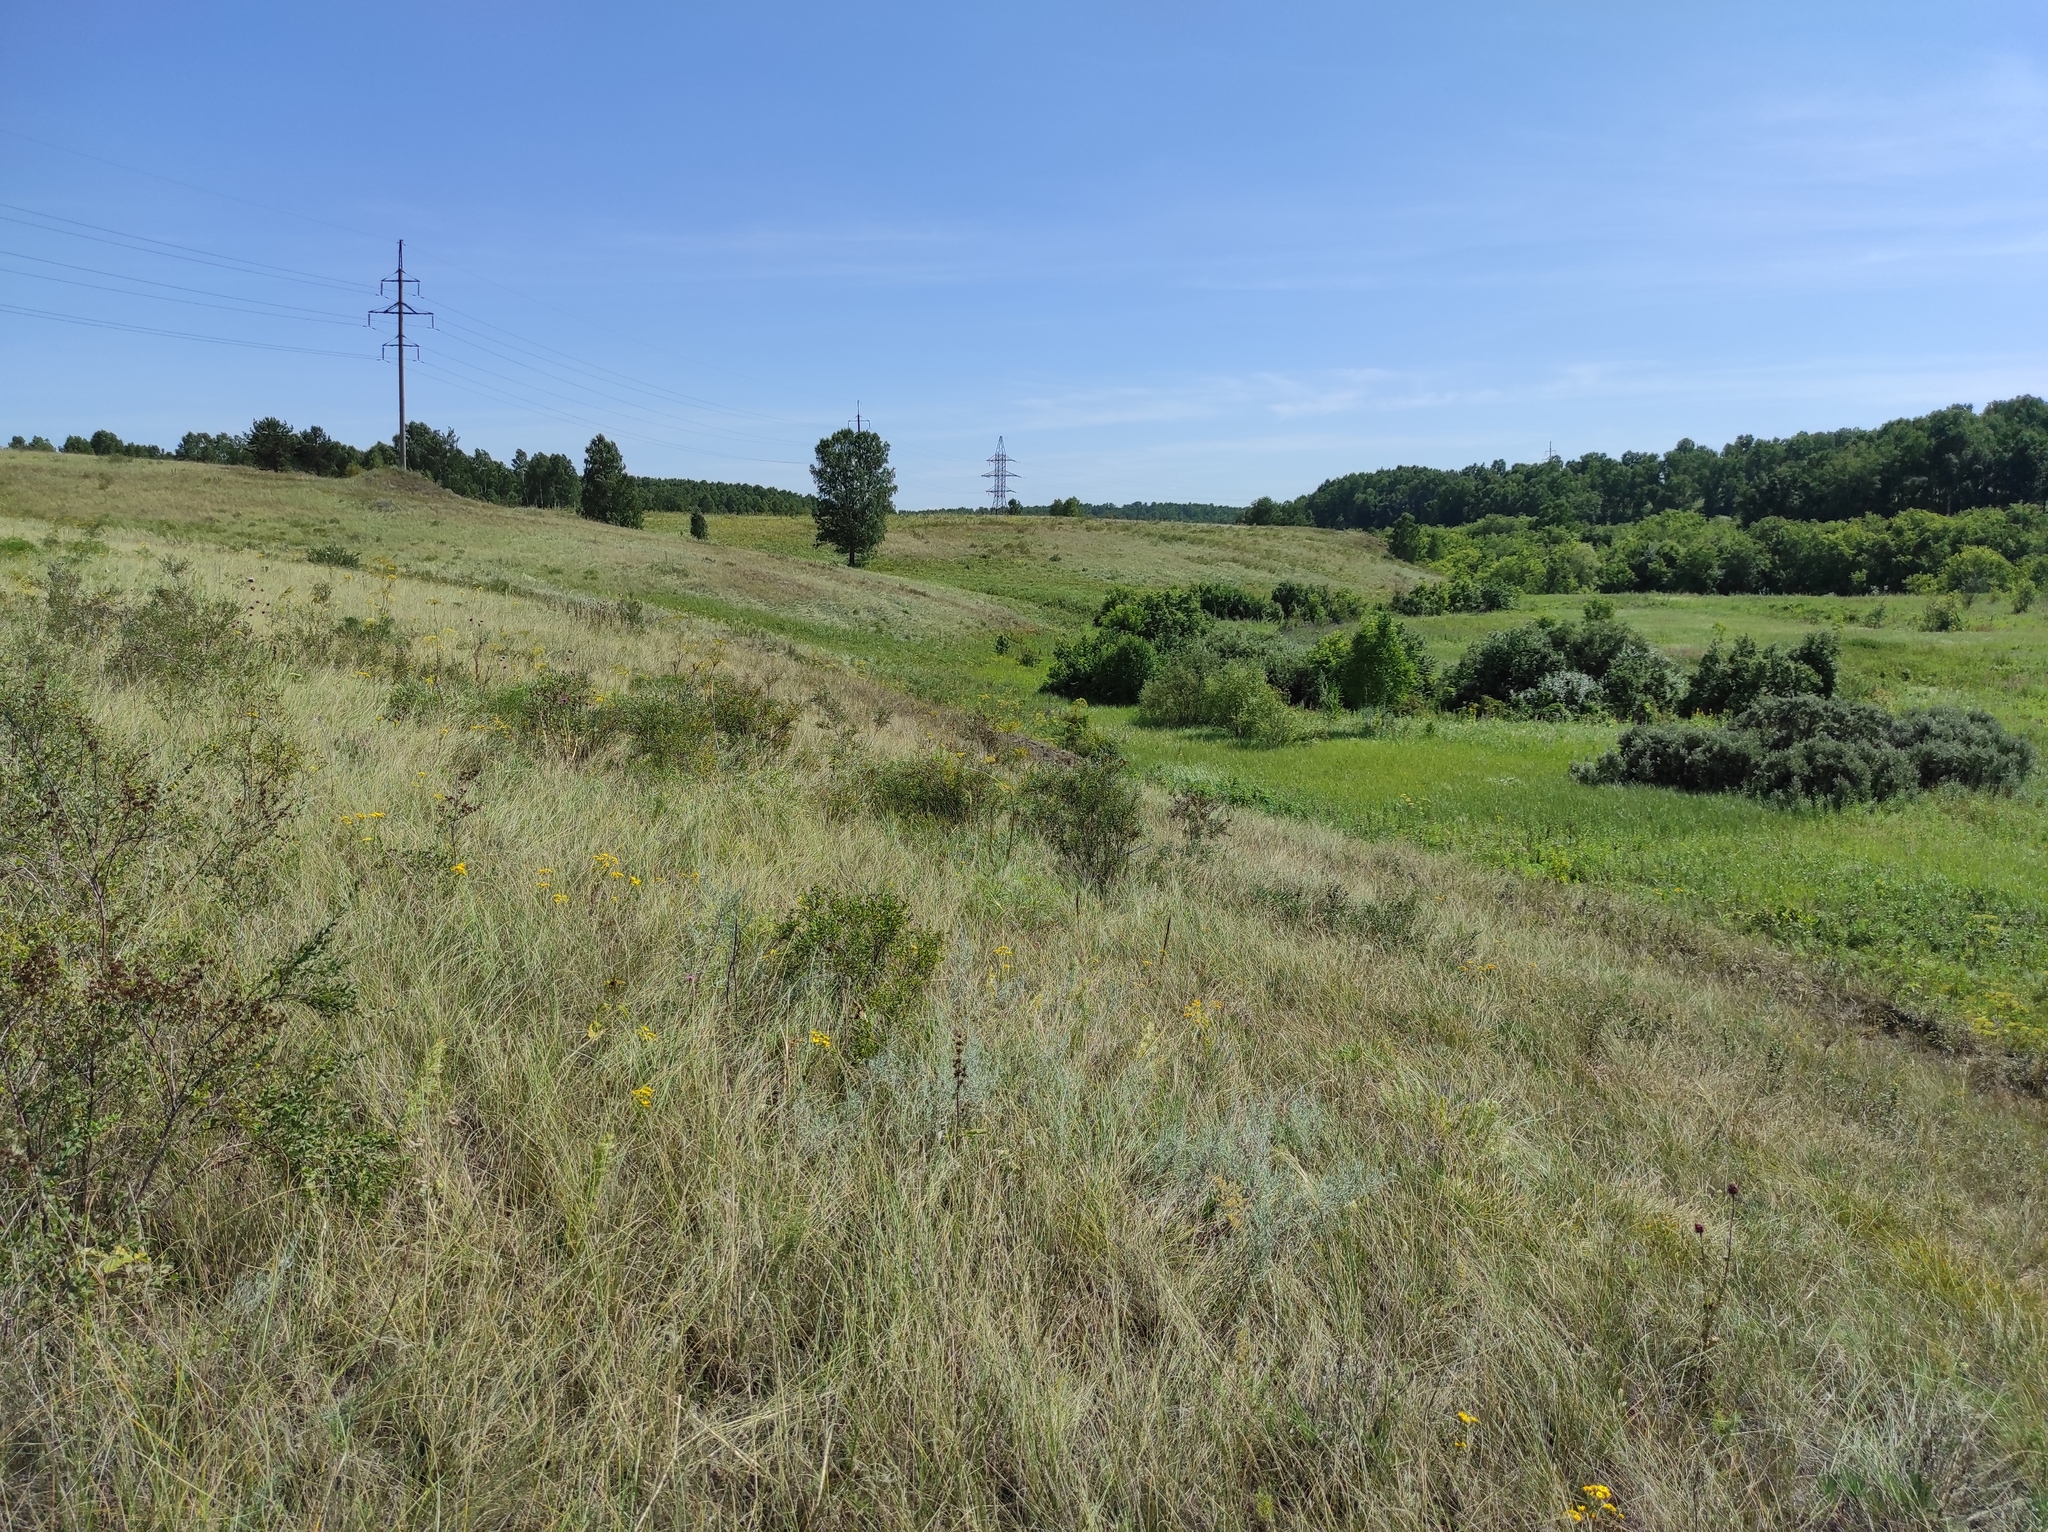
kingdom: Plantae
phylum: Tracheophyta
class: Magnoliopsida
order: Asterales
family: Asteraceae
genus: Jacobaea
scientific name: Jacobaea vulgaris
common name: Stinking willie
